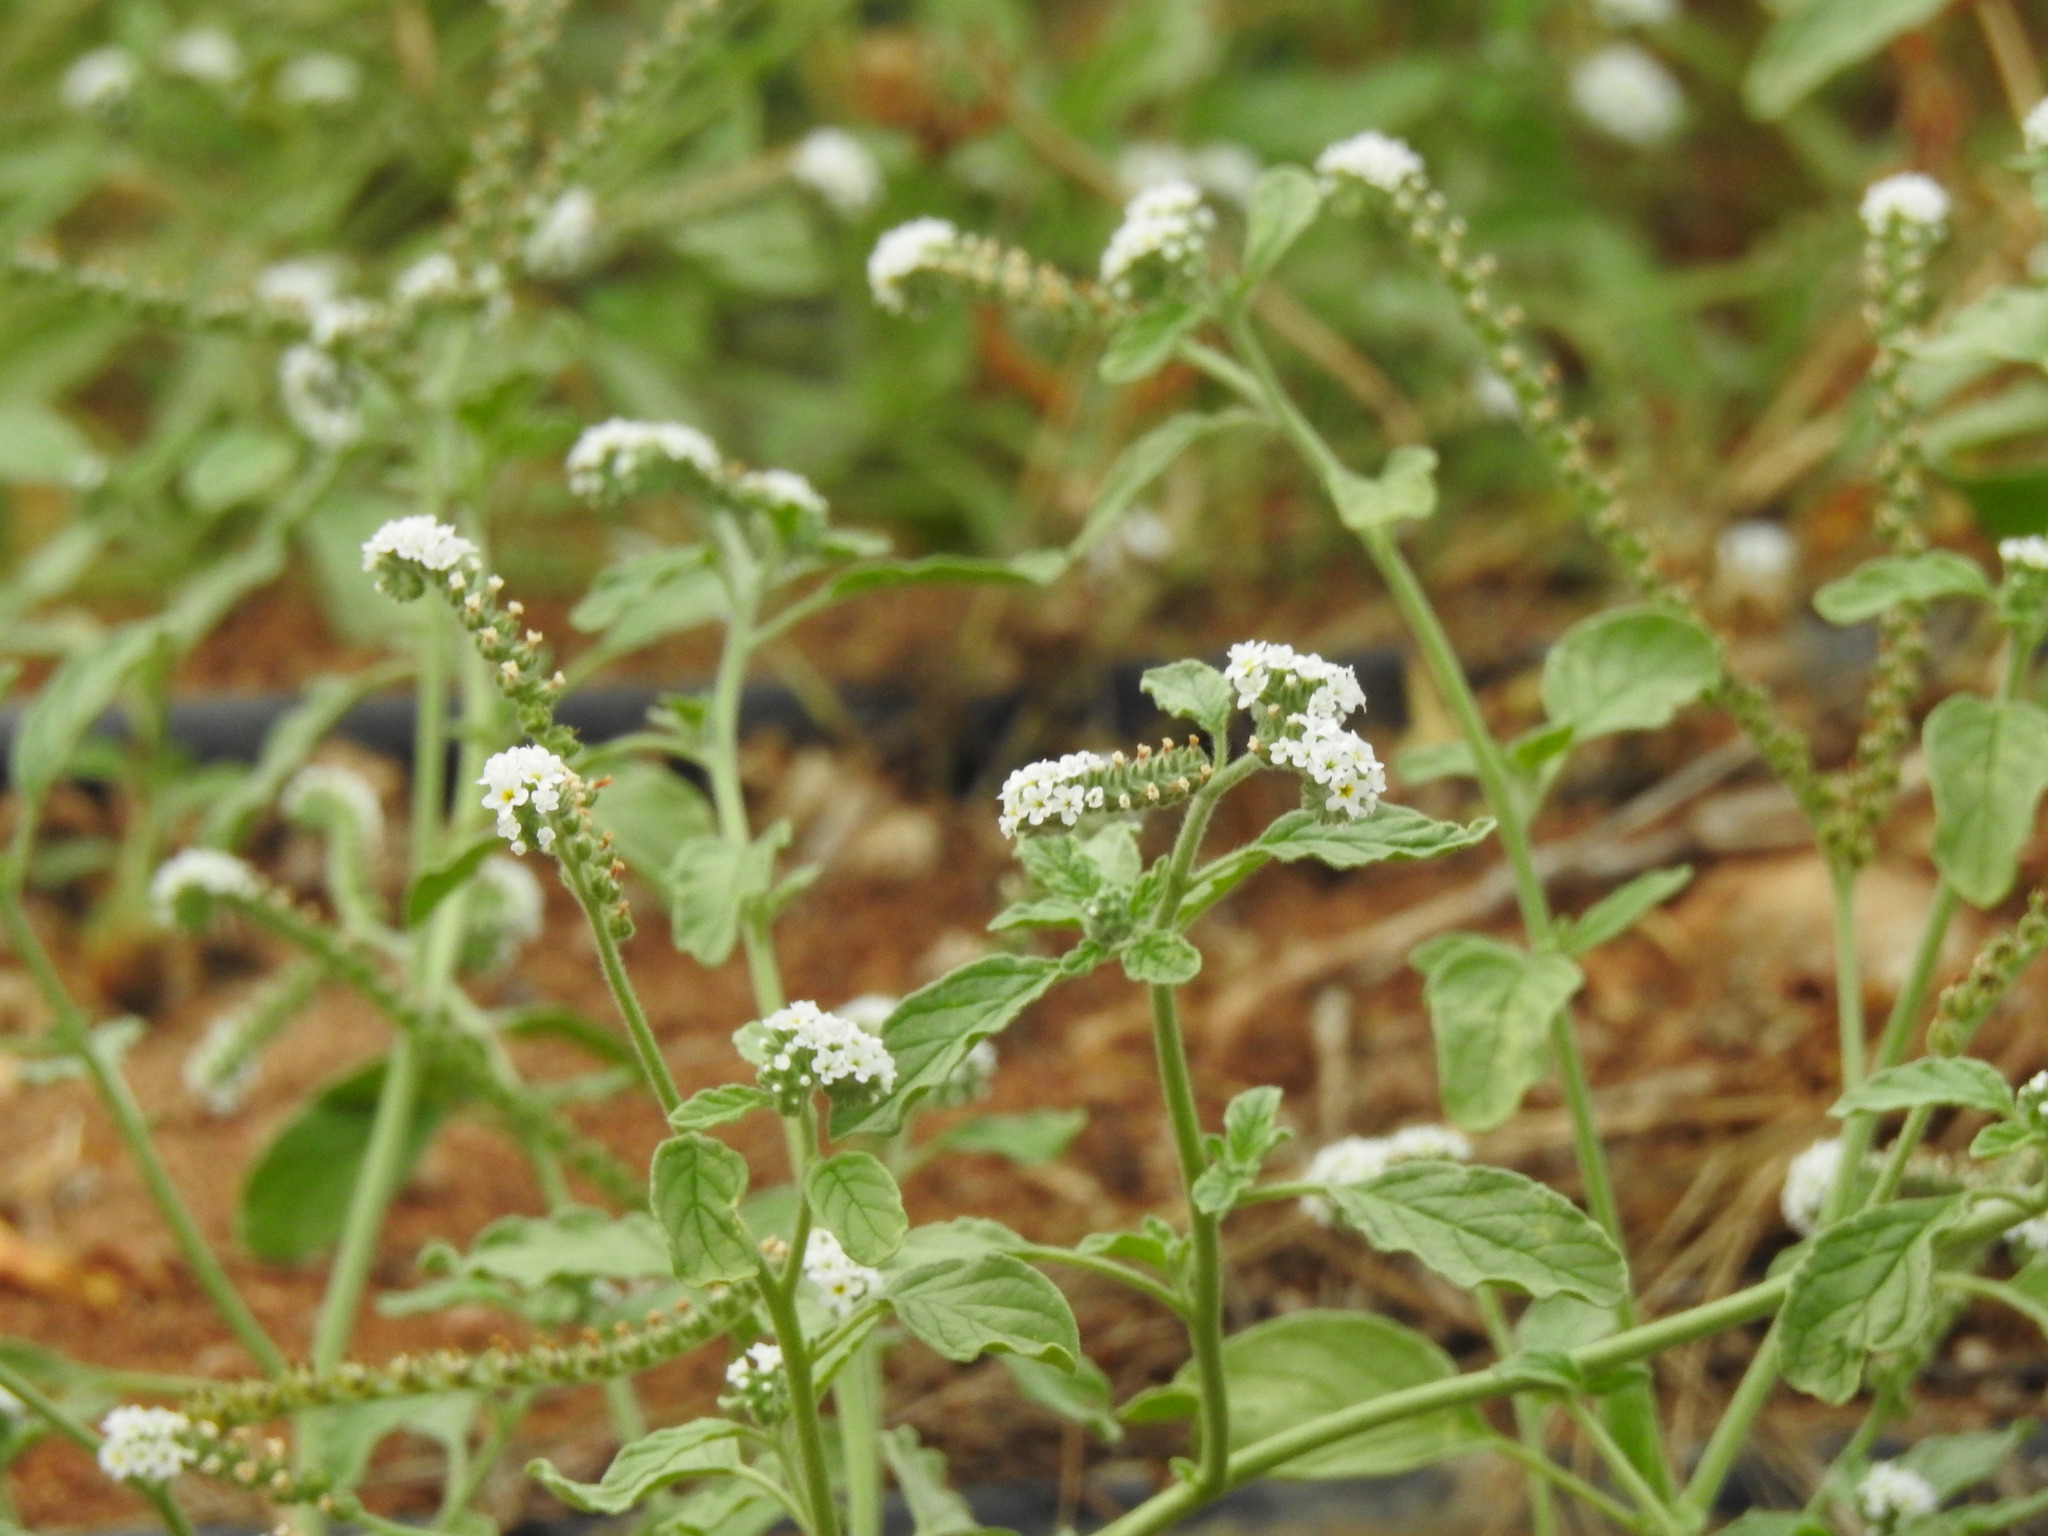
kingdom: Plantae
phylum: Tracheophyta
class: Magnoliopsida
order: Boraginales
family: Heliotropiaceae
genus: Heliotropium
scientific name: Heliotropium europaeum
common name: European heliotrope
